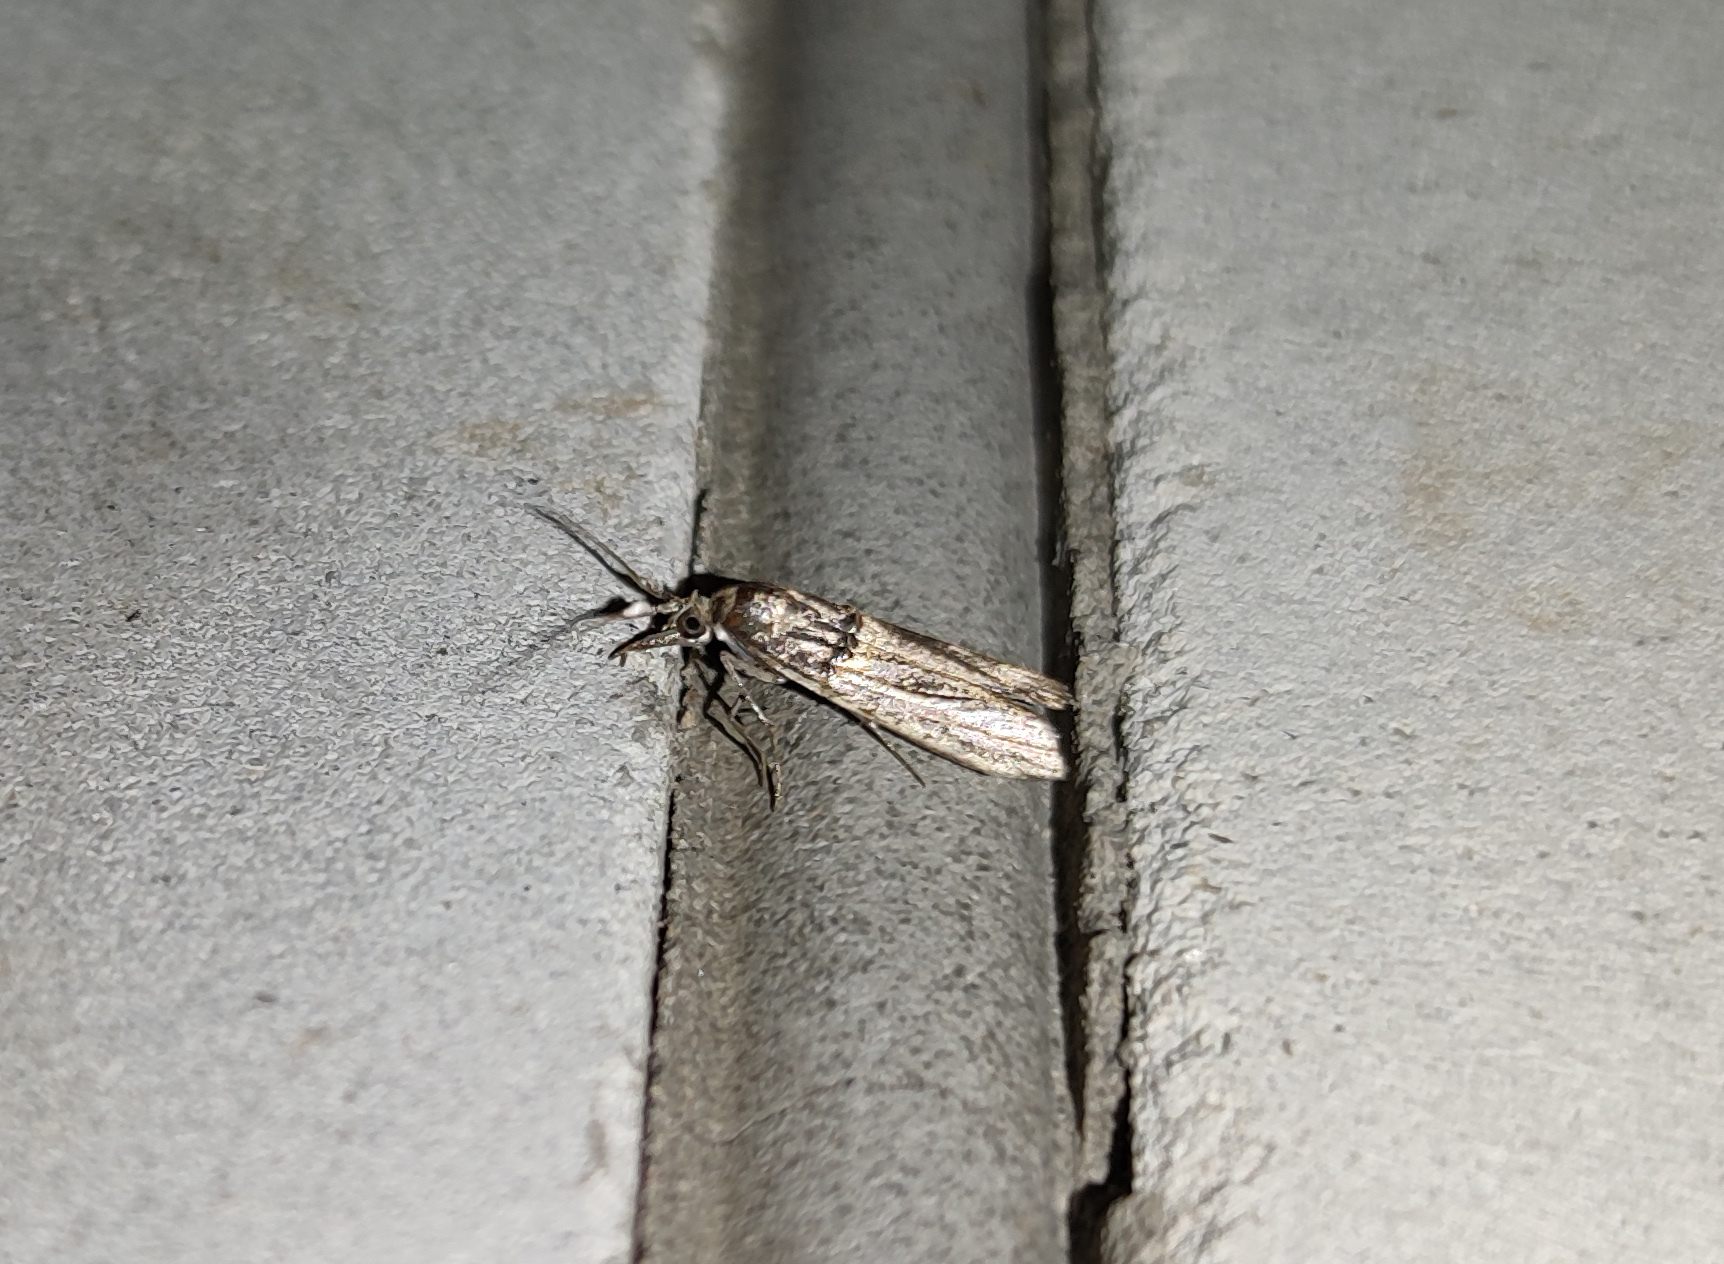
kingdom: Animalia
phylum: Arthropoda
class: Insecta
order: Lepidoptera
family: Pyralidae
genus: Etiella
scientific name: Etiella zinckenella
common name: Gold-banded etiella moth
